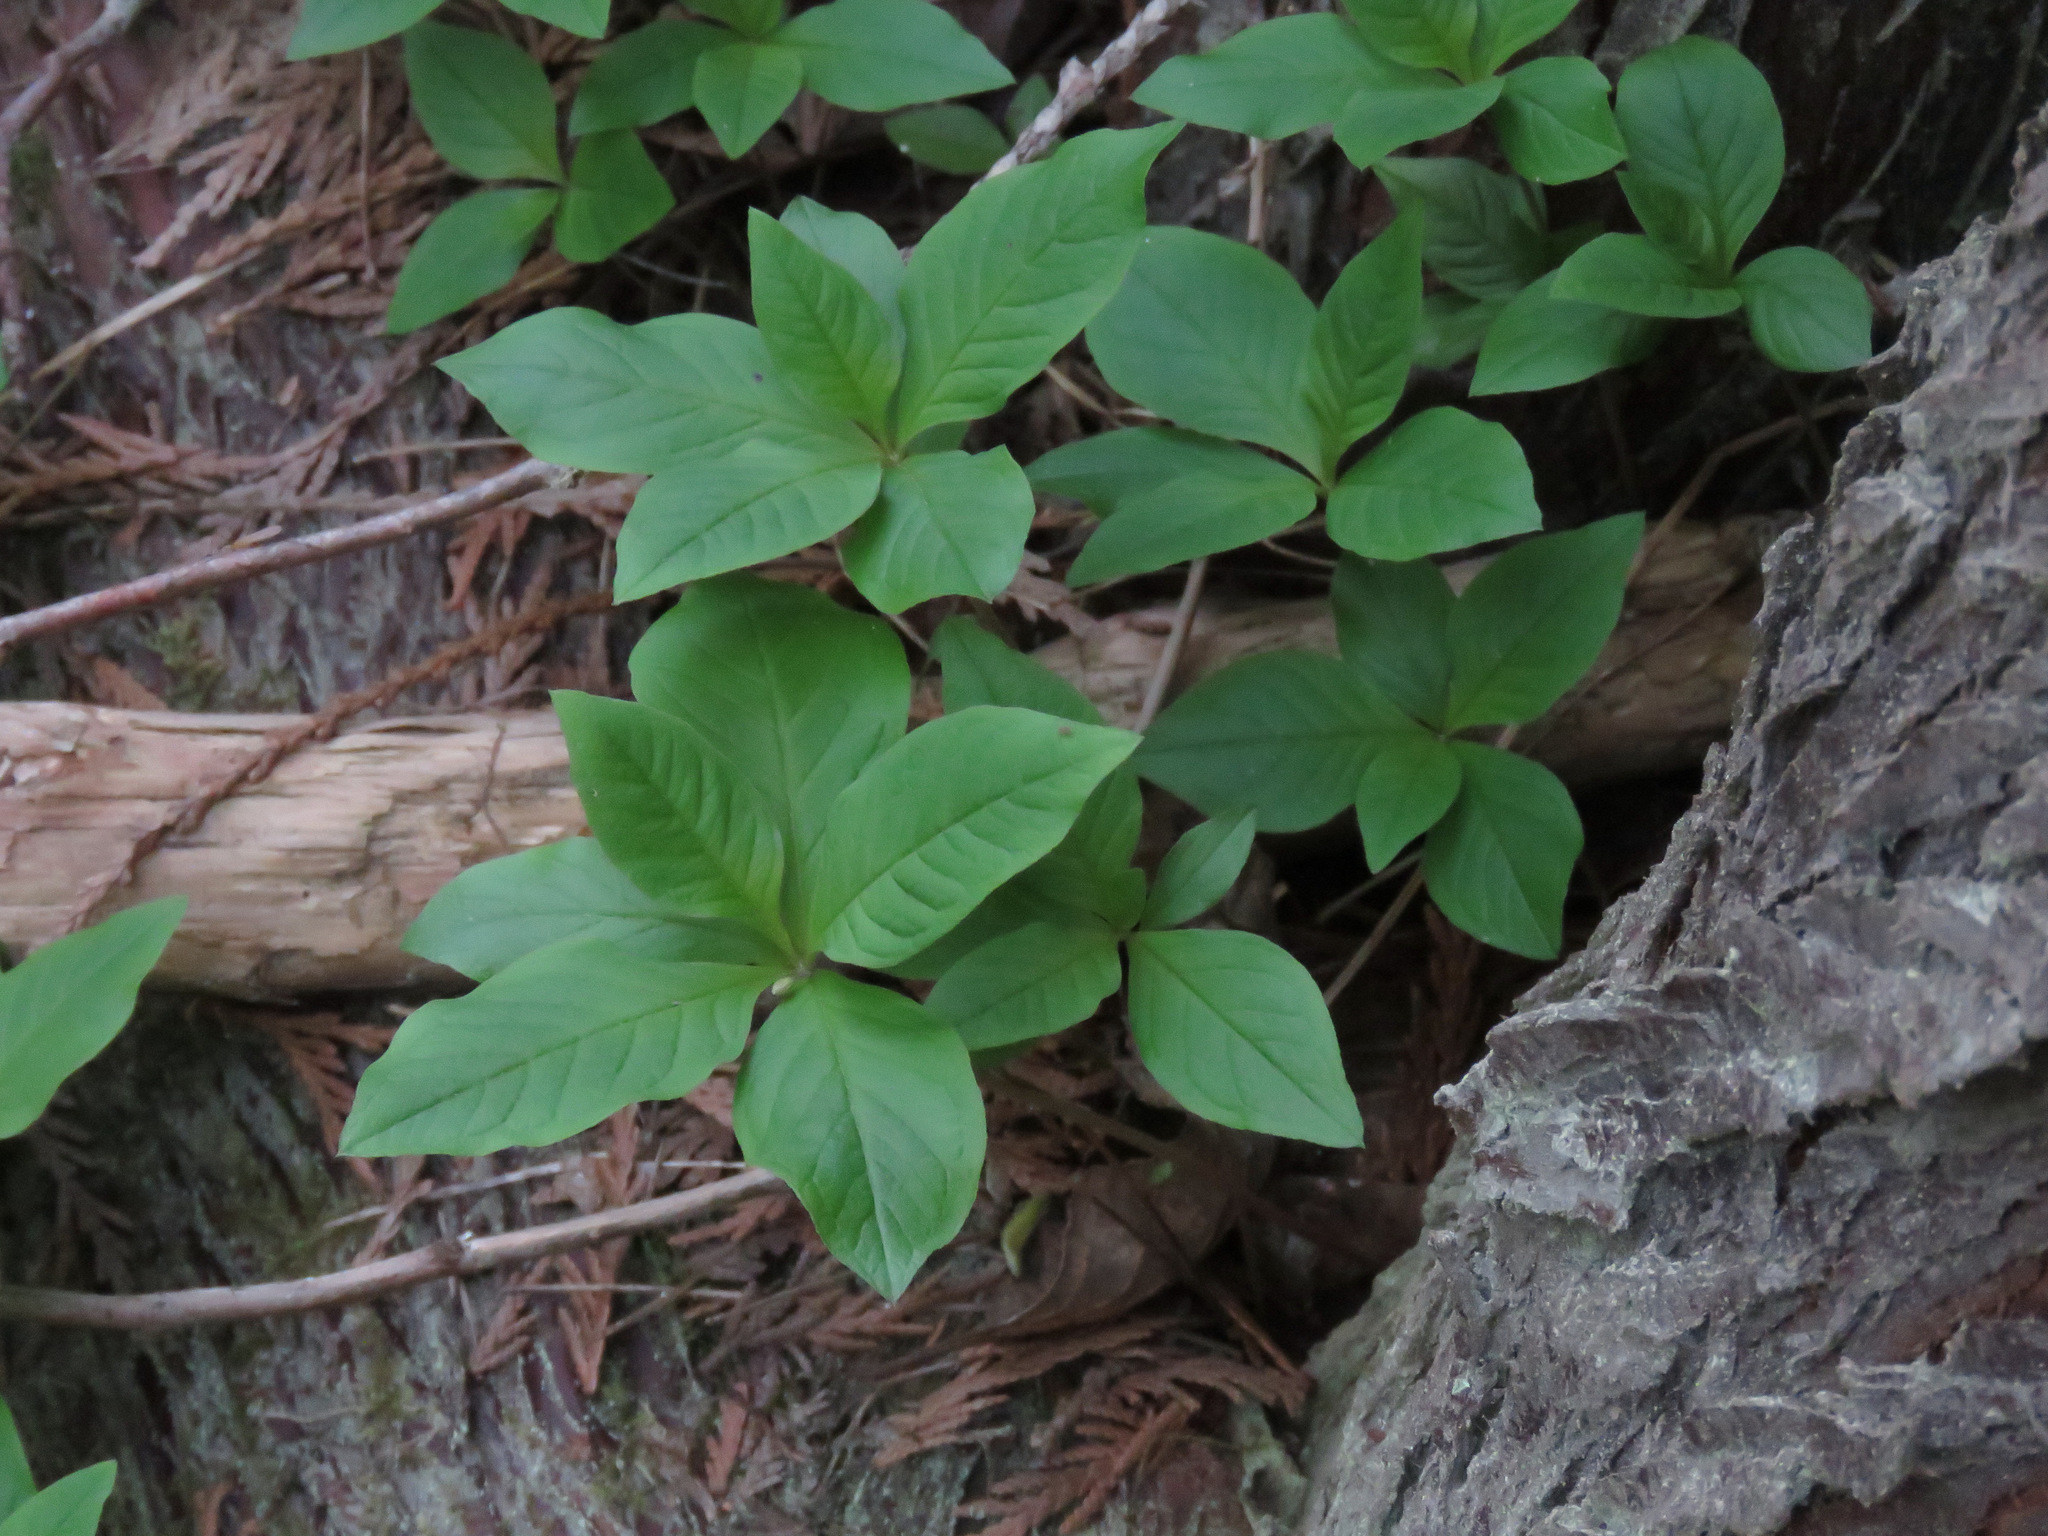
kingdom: Plantae
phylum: Tracheophyta
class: Magnoliopsida
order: Ericales
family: Primulaceae
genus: Lysimachia
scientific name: Lysimachia latifolia
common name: Pacific starflower
